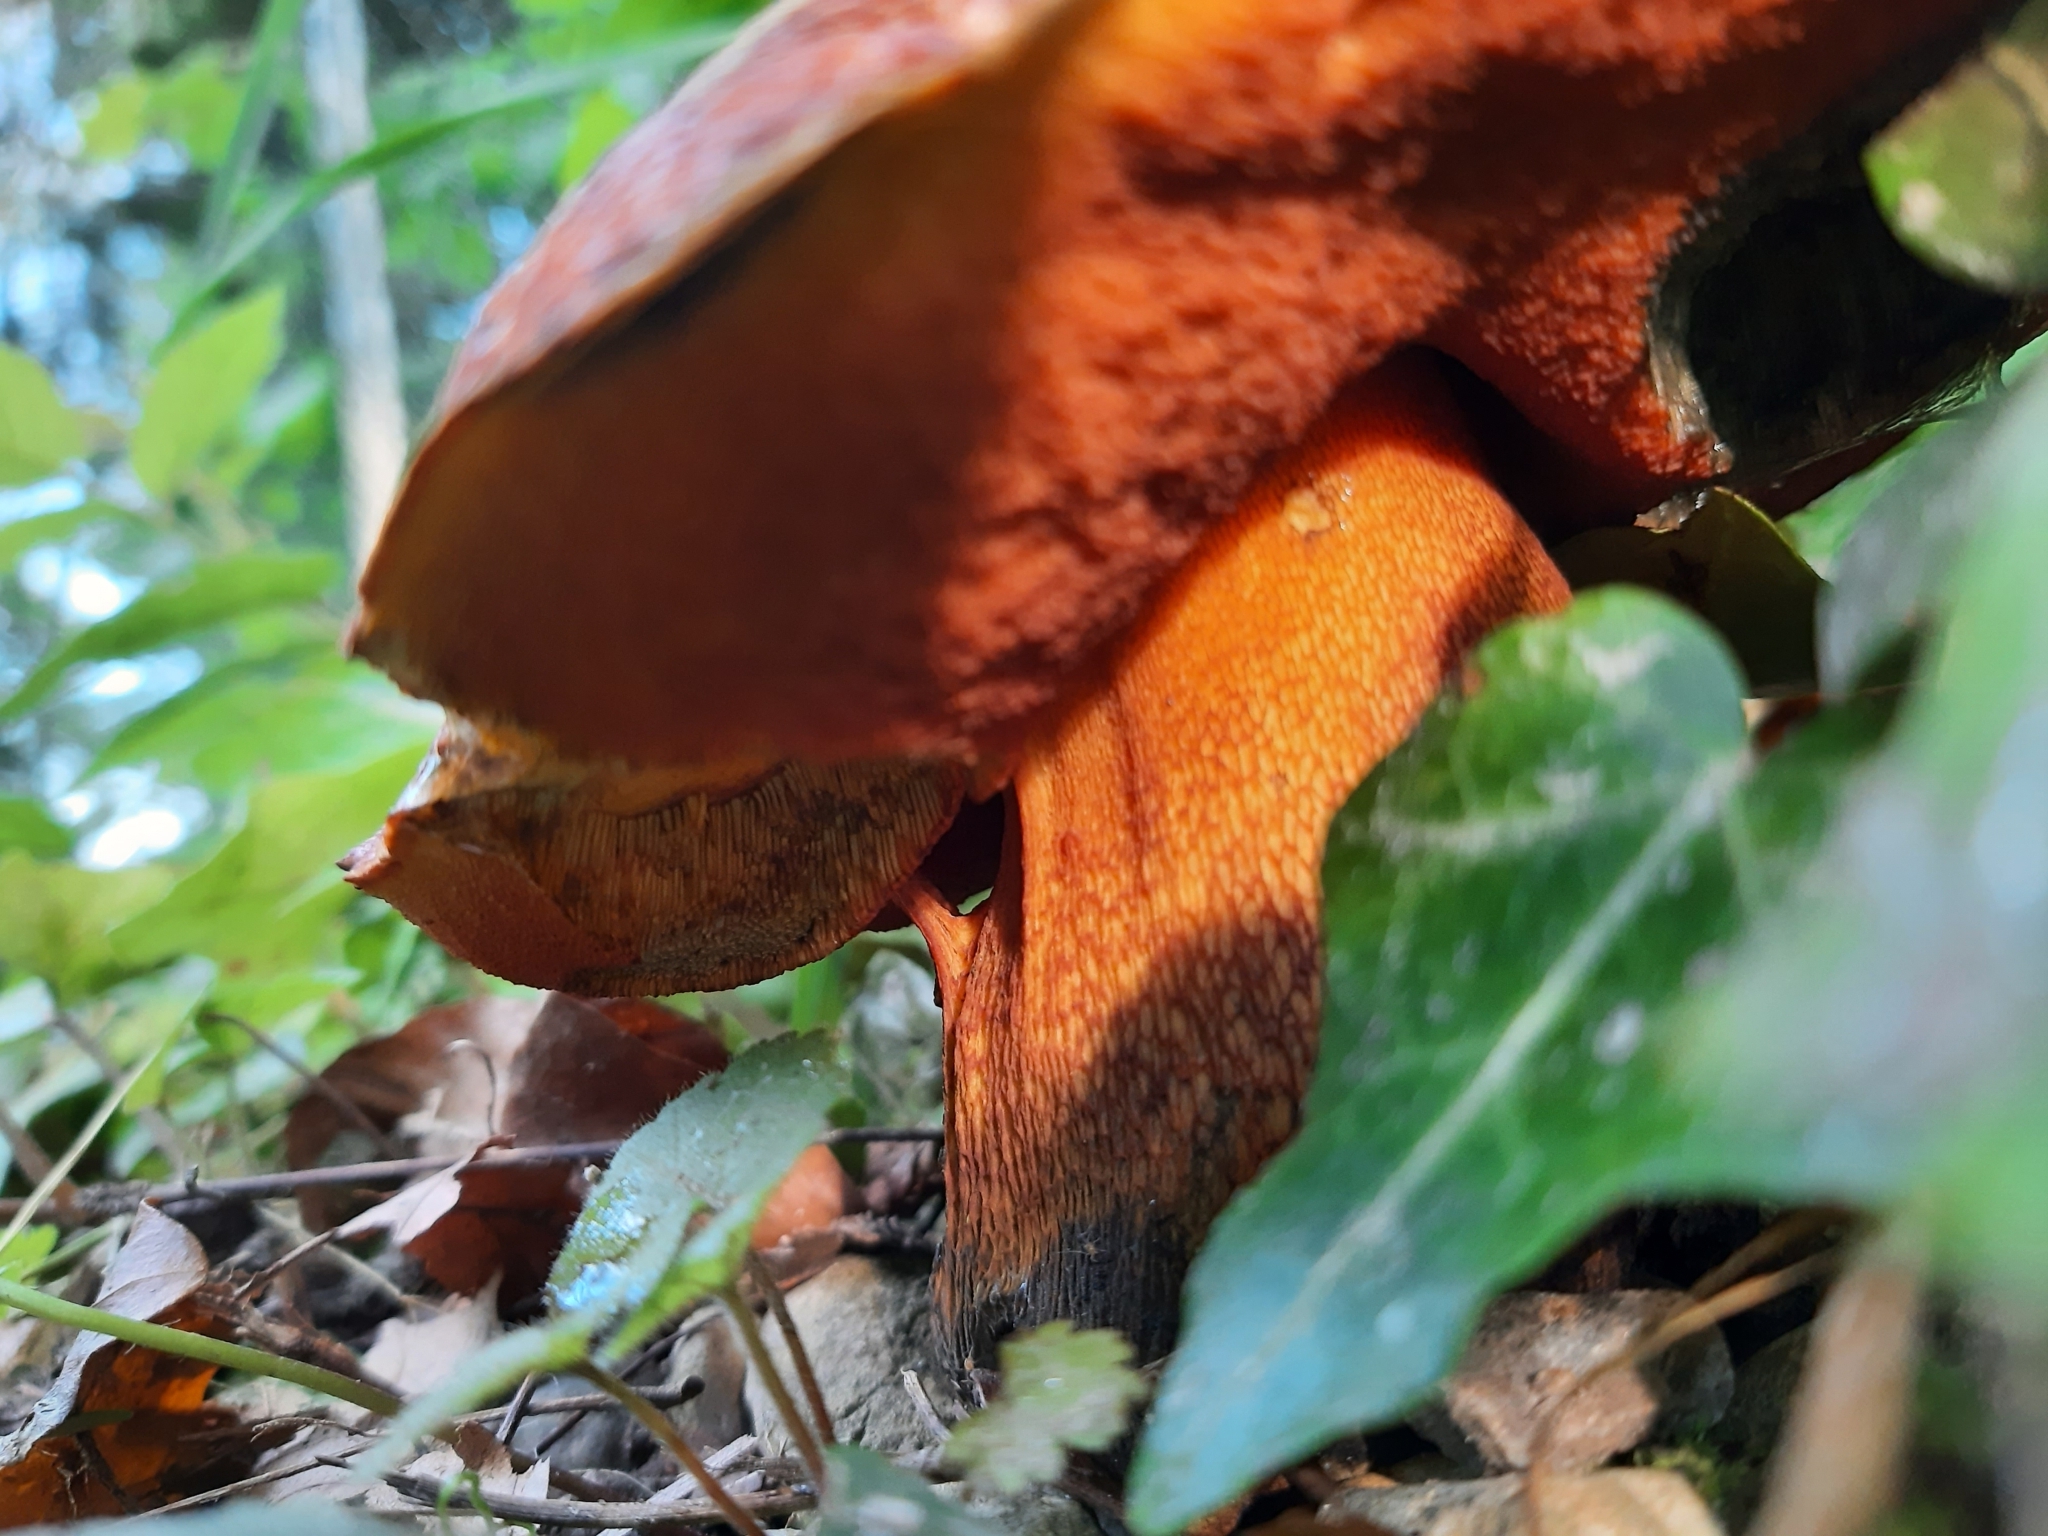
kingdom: Fungi
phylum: Basidiomycota
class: Agaricomycetes
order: Boletales
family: Boletaceae
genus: Suillellus
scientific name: Suillellus luridus
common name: Lurid bolete
